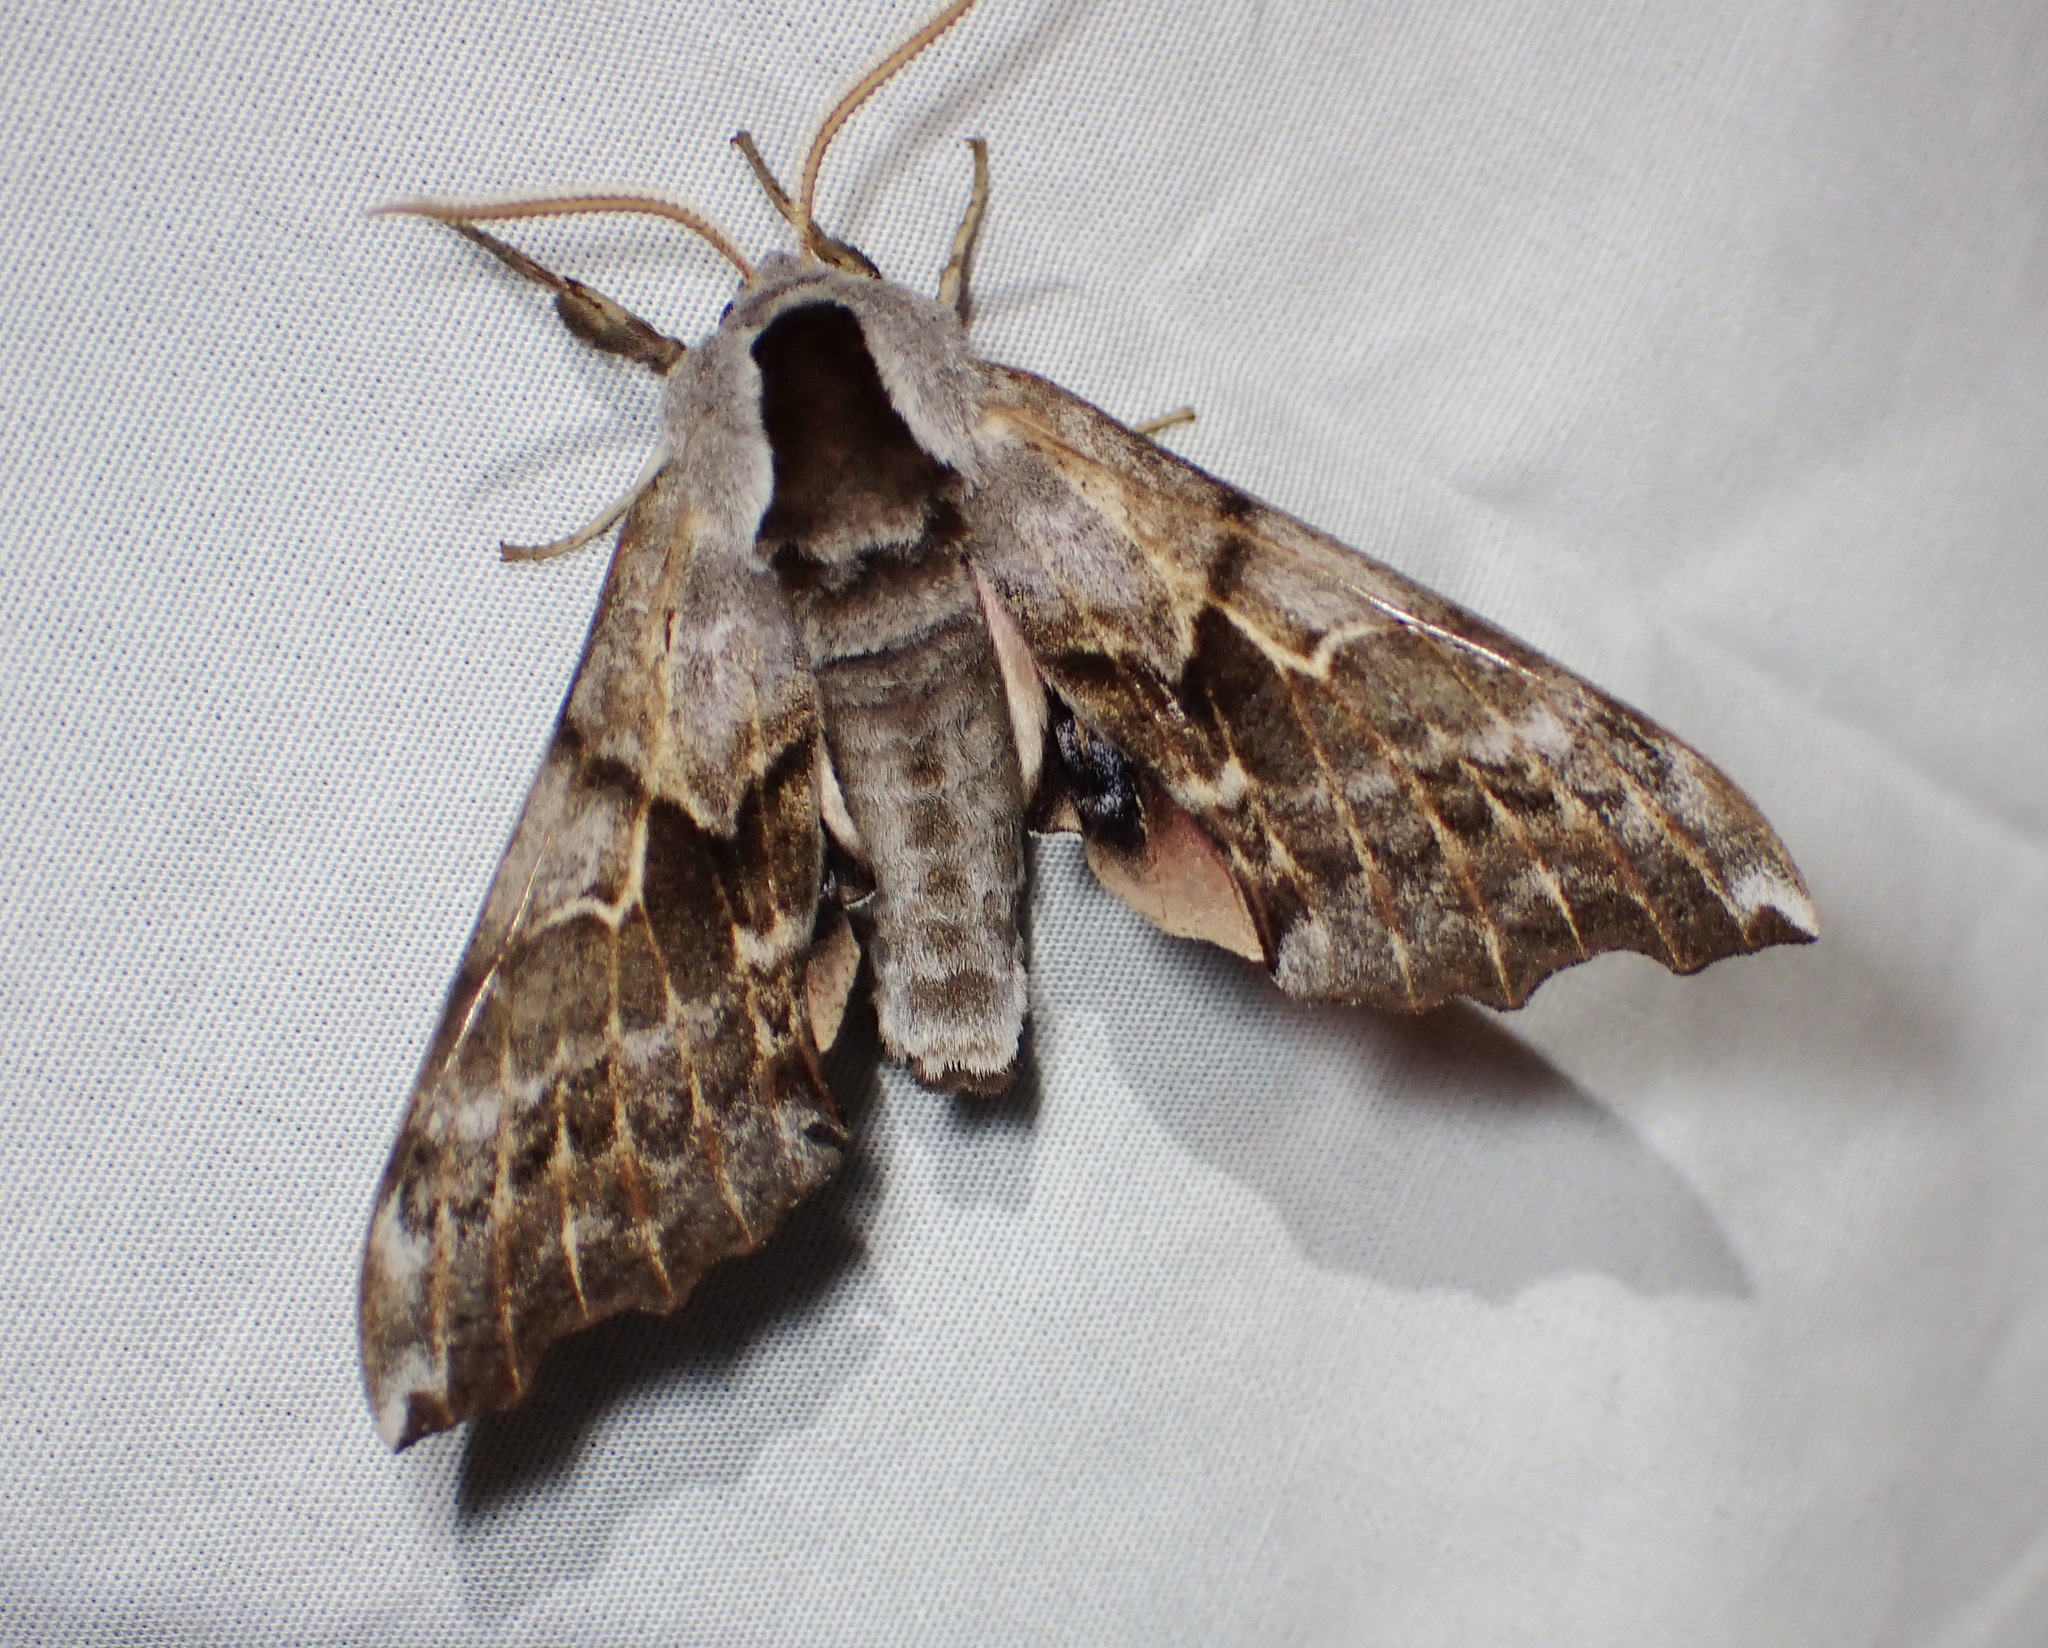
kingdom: Animalia
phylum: Arthropoda
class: Insecta
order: Lepidoptera
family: Sphingidae
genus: Smerinthus
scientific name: Smerinthus cerisyi
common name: Cerisy's sphinx moth
